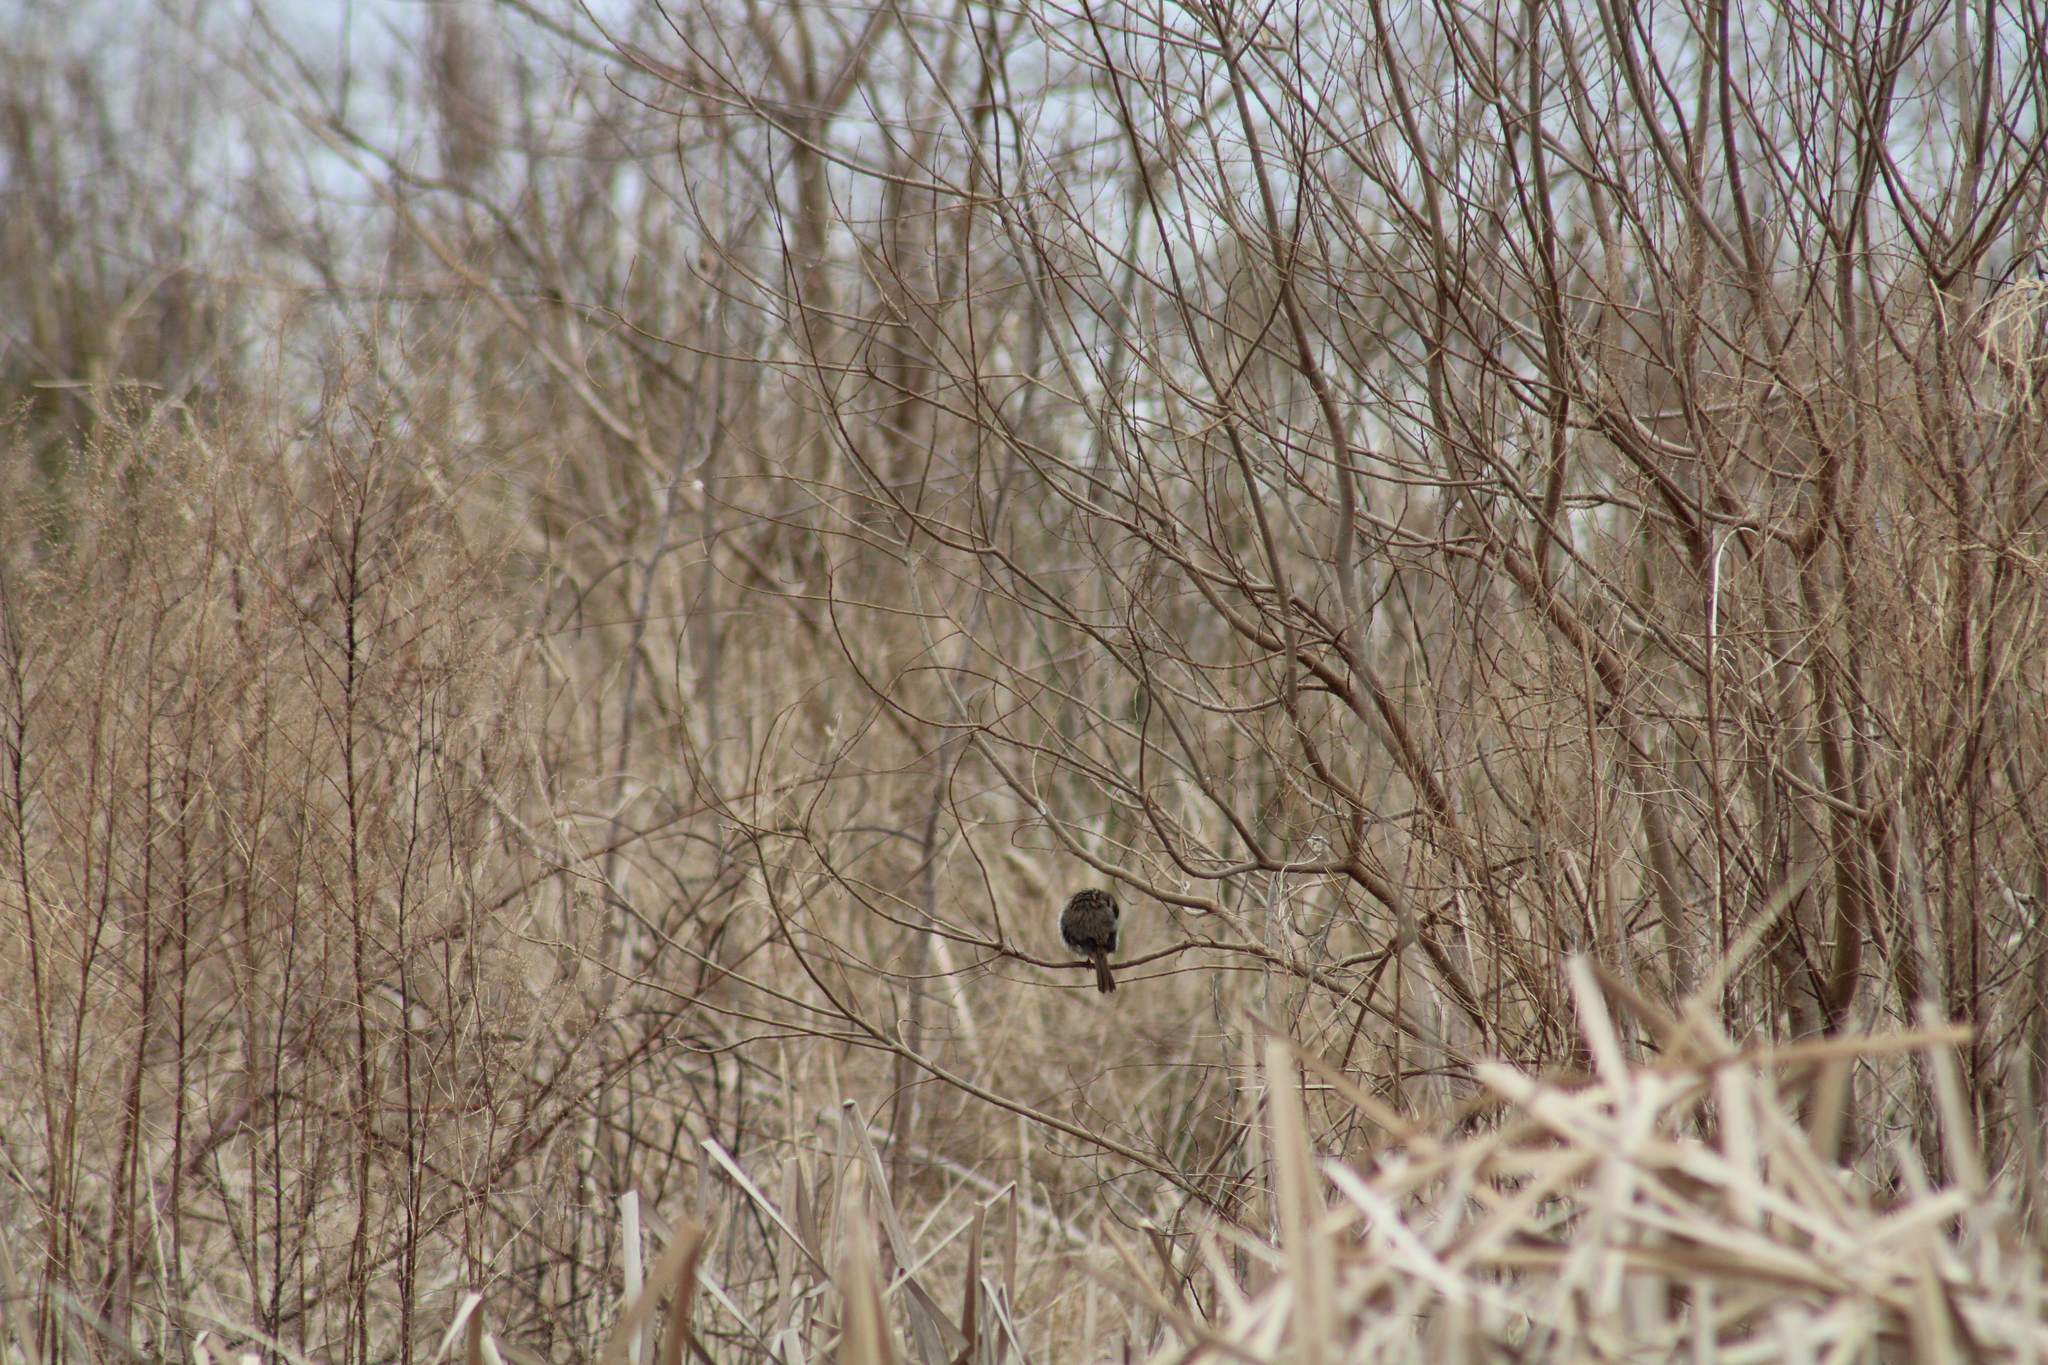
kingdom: Animalia
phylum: Chordata
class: Aves
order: Passeriformes
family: Passerellidae
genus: Melospiza
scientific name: Melospiza melodia
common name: Song sparrow
